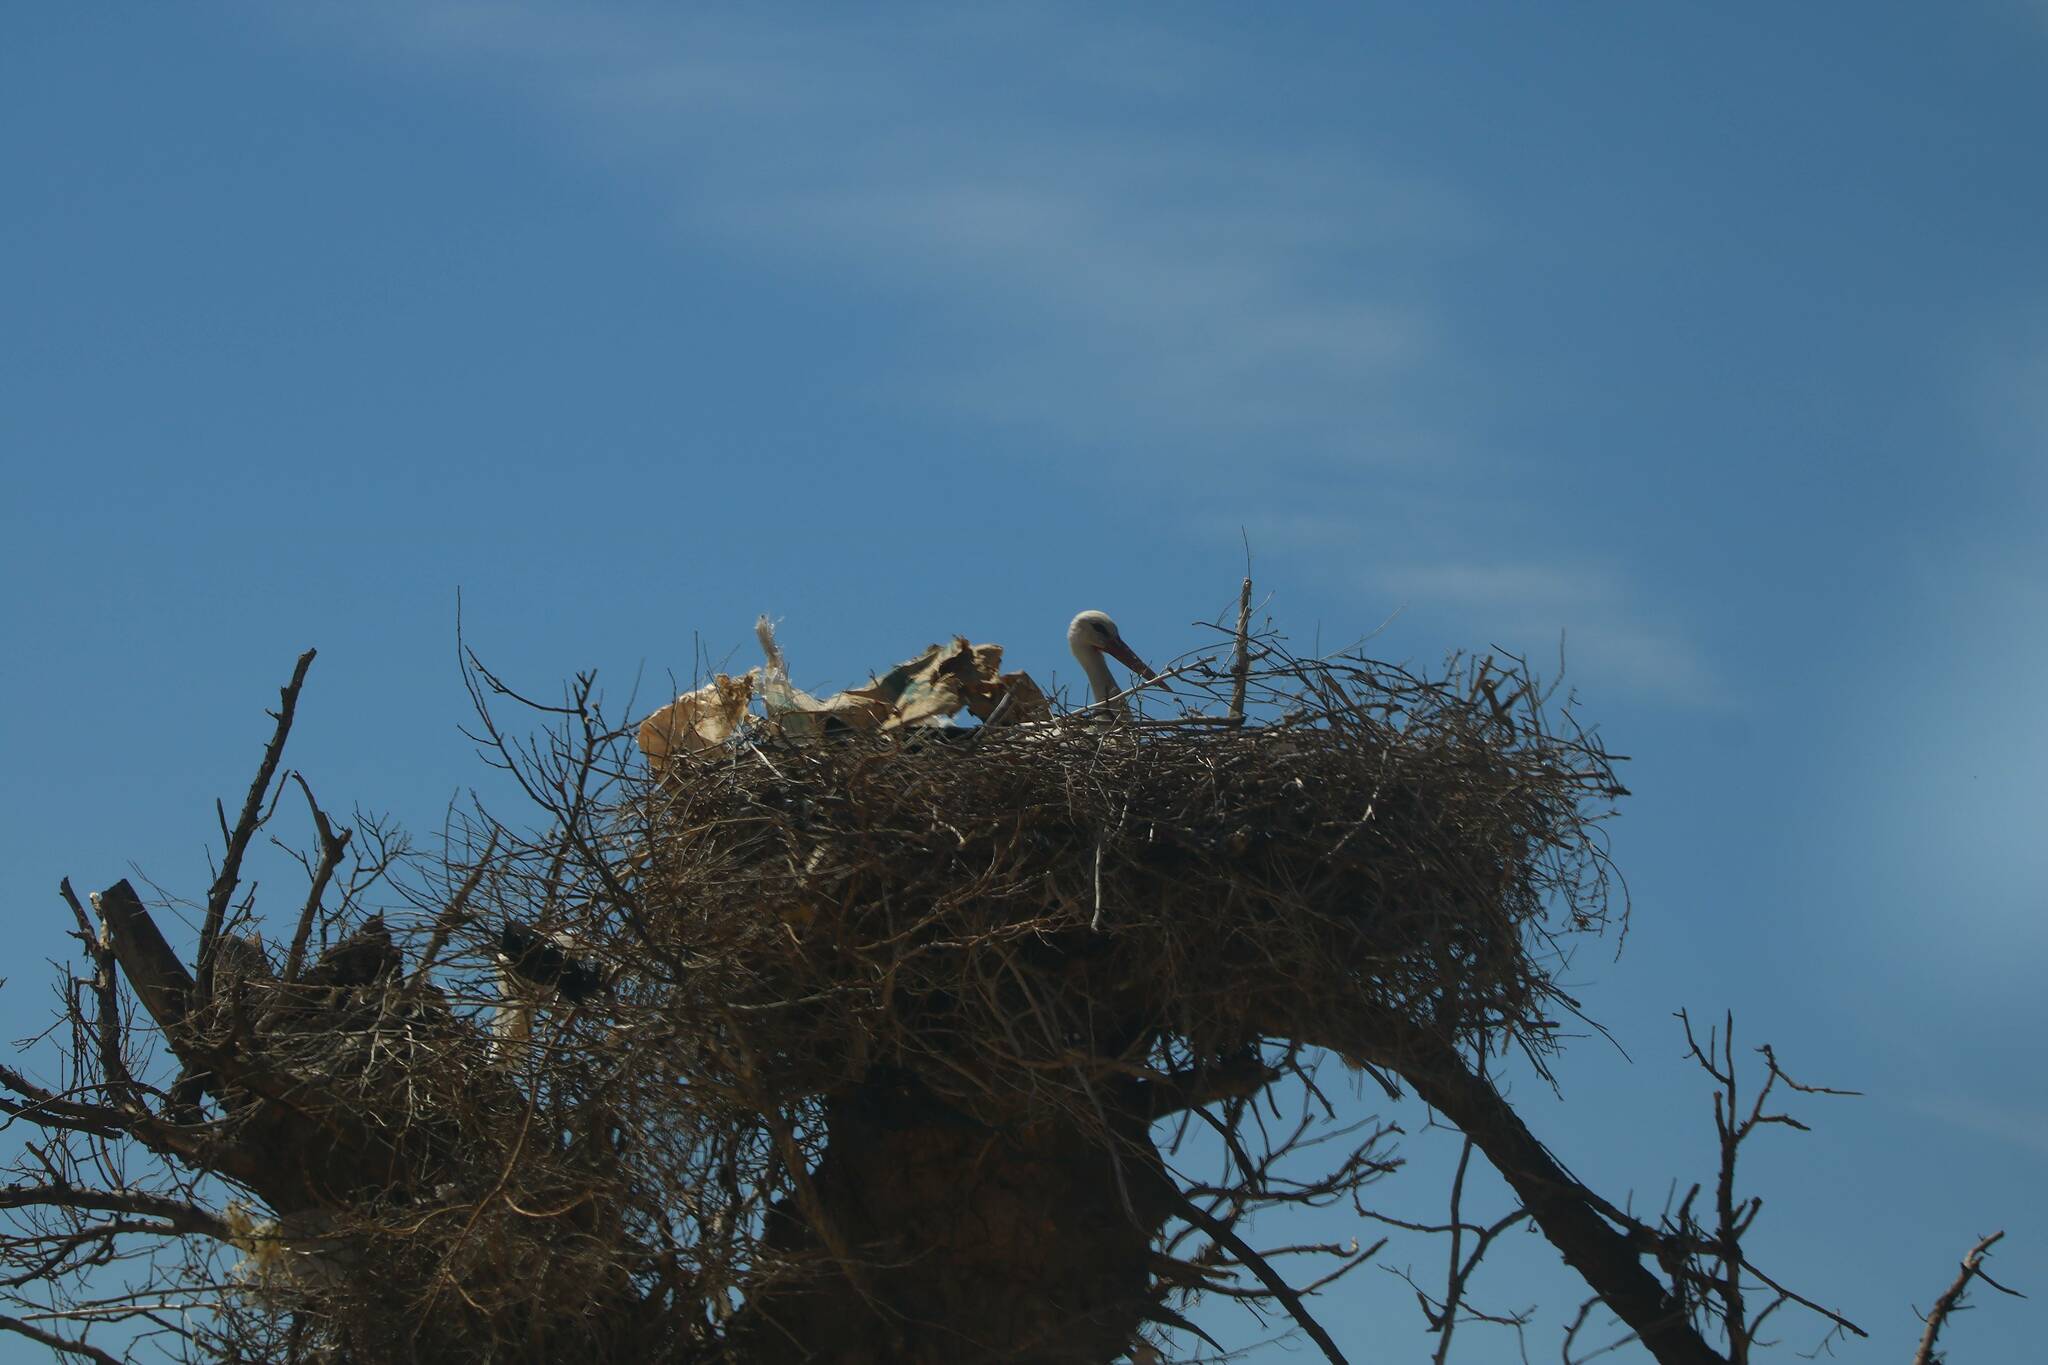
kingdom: Animalia
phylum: Chordata
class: Aves
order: Ciconiiformes
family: Ciconiidae
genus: Ciconia
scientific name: Ciconia ciconia
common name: White stork
